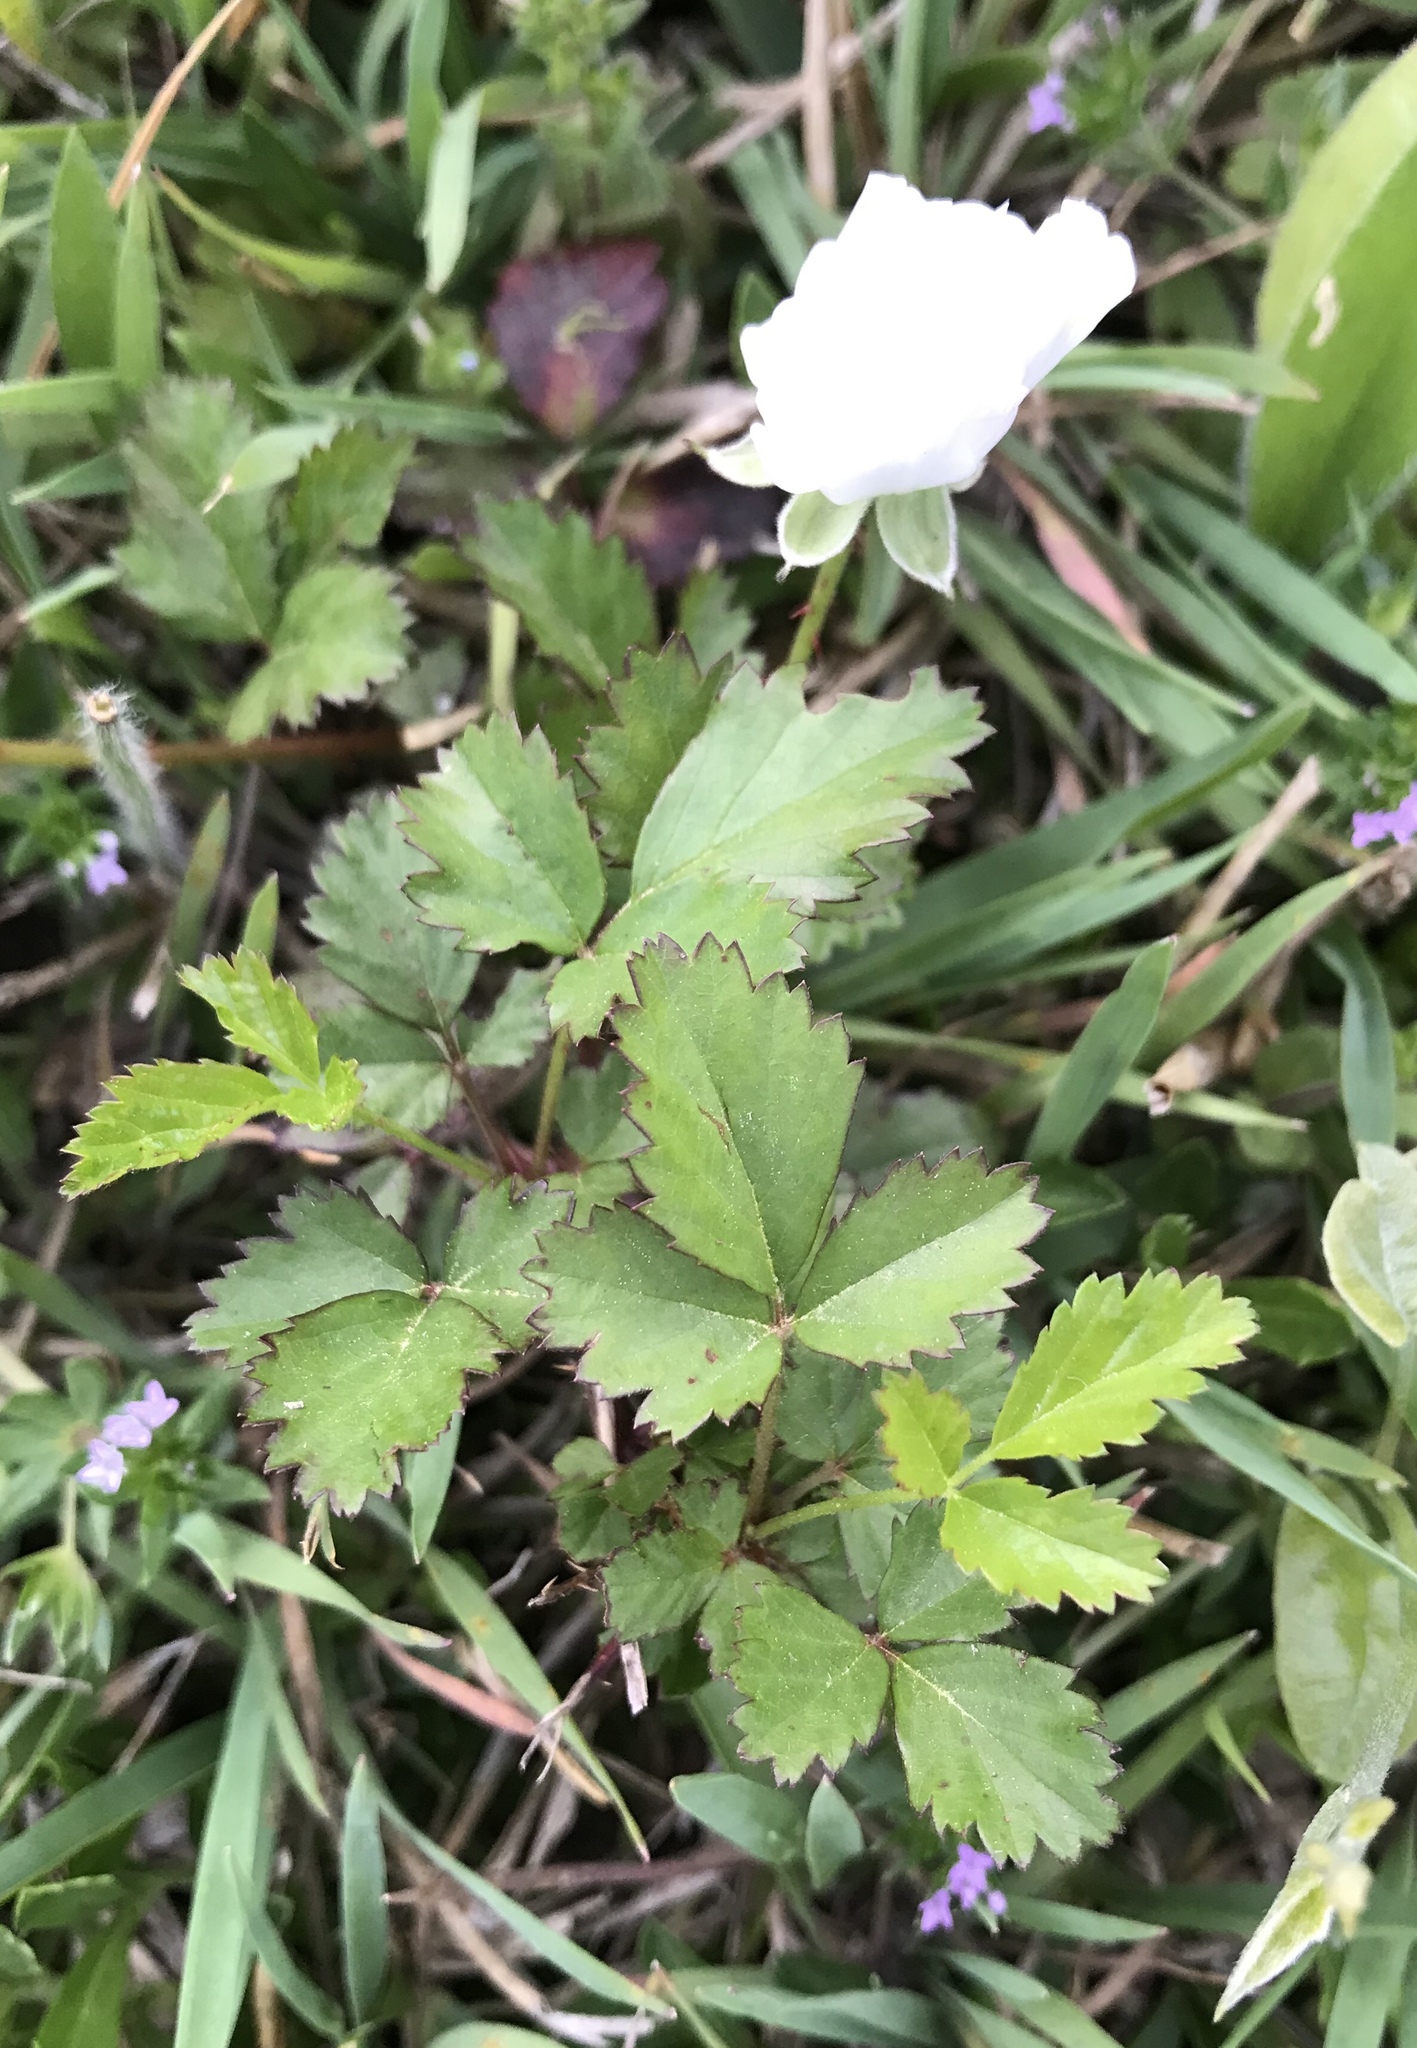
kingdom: Plantae
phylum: Tracheophyta
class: Magnoliopsida
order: Rosales
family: Rosaceae
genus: Rubus
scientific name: Rubus trivialis
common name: Southern dewberry
